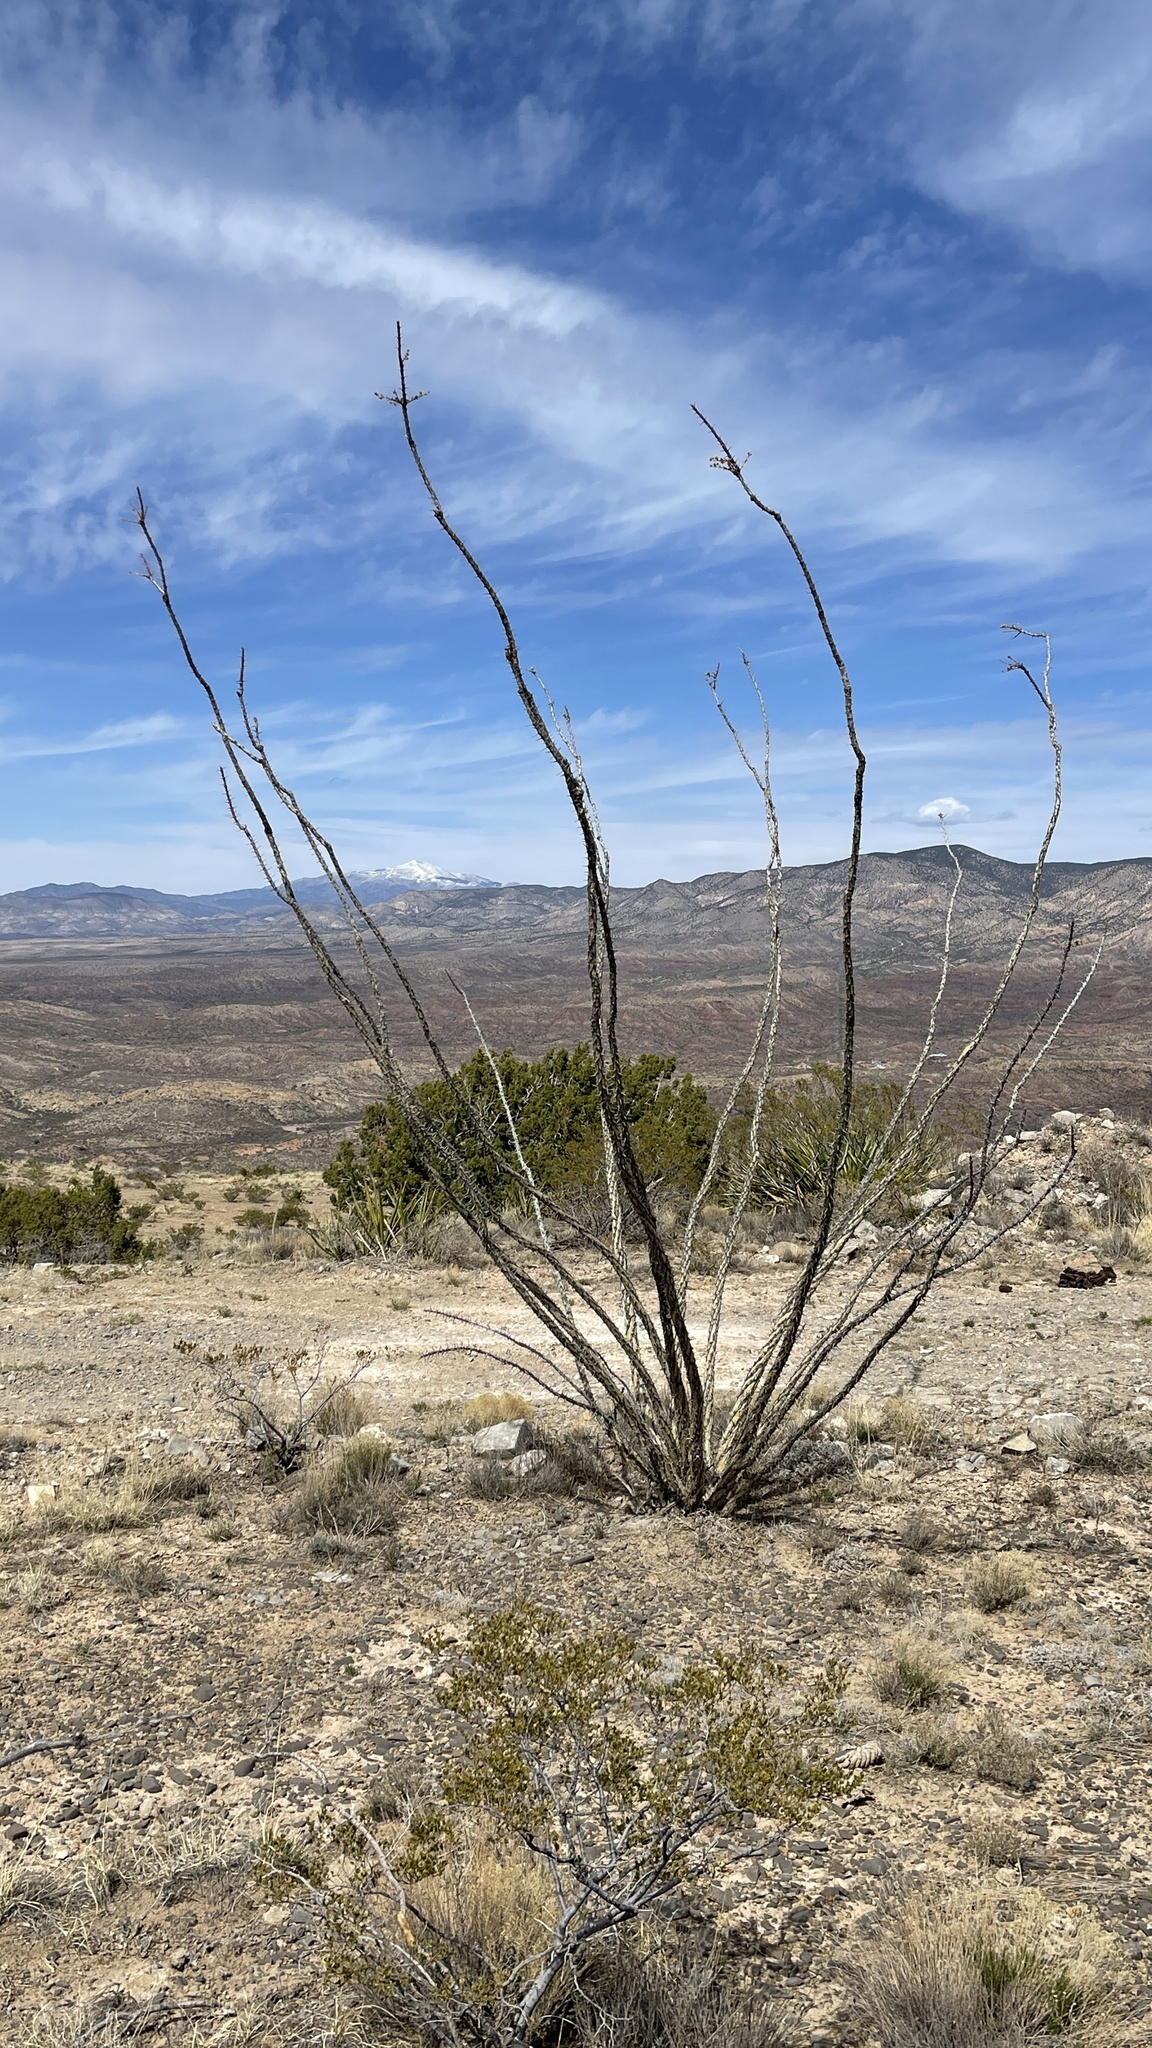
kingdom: Plantae
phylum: Tracheophyta
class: Magnoliopsida
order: Ericales
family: Fouquieriaceae
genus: Fouquieria
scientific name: Fouquieria splendens
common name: Vine-cactus
